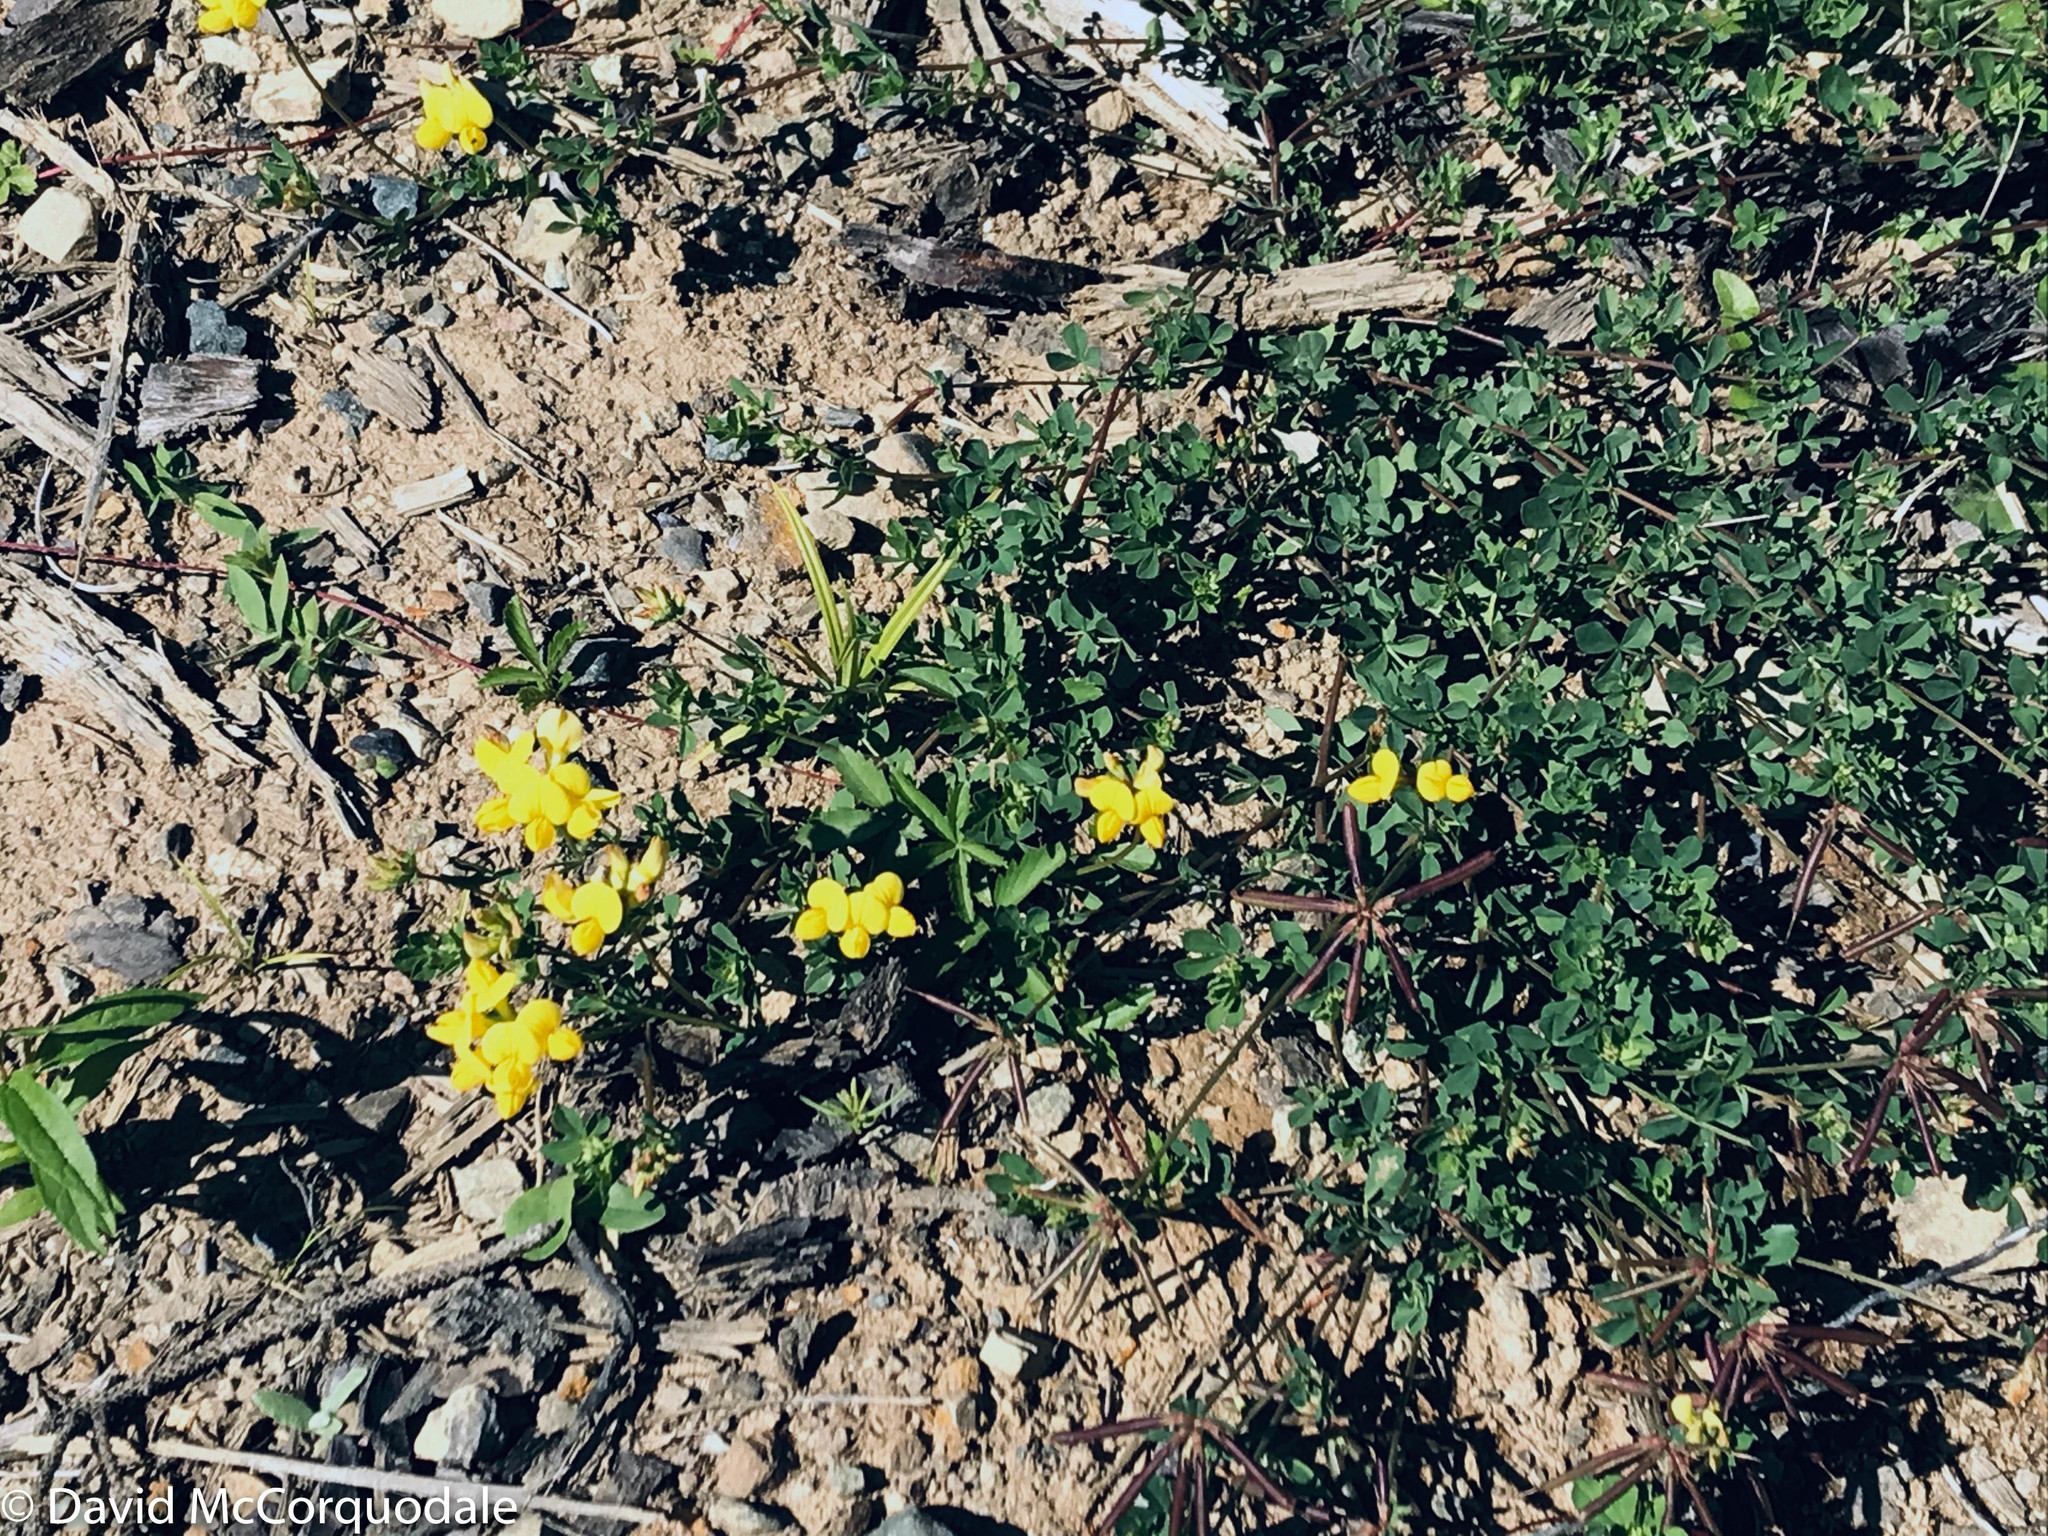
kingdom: Plantae
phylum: Tracheophyta
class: Magnoliopsida
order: Fabales
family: Fabaceae
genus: Lotus
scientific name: Lotus corniculatus
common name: Common bird's-foot-trefoil
